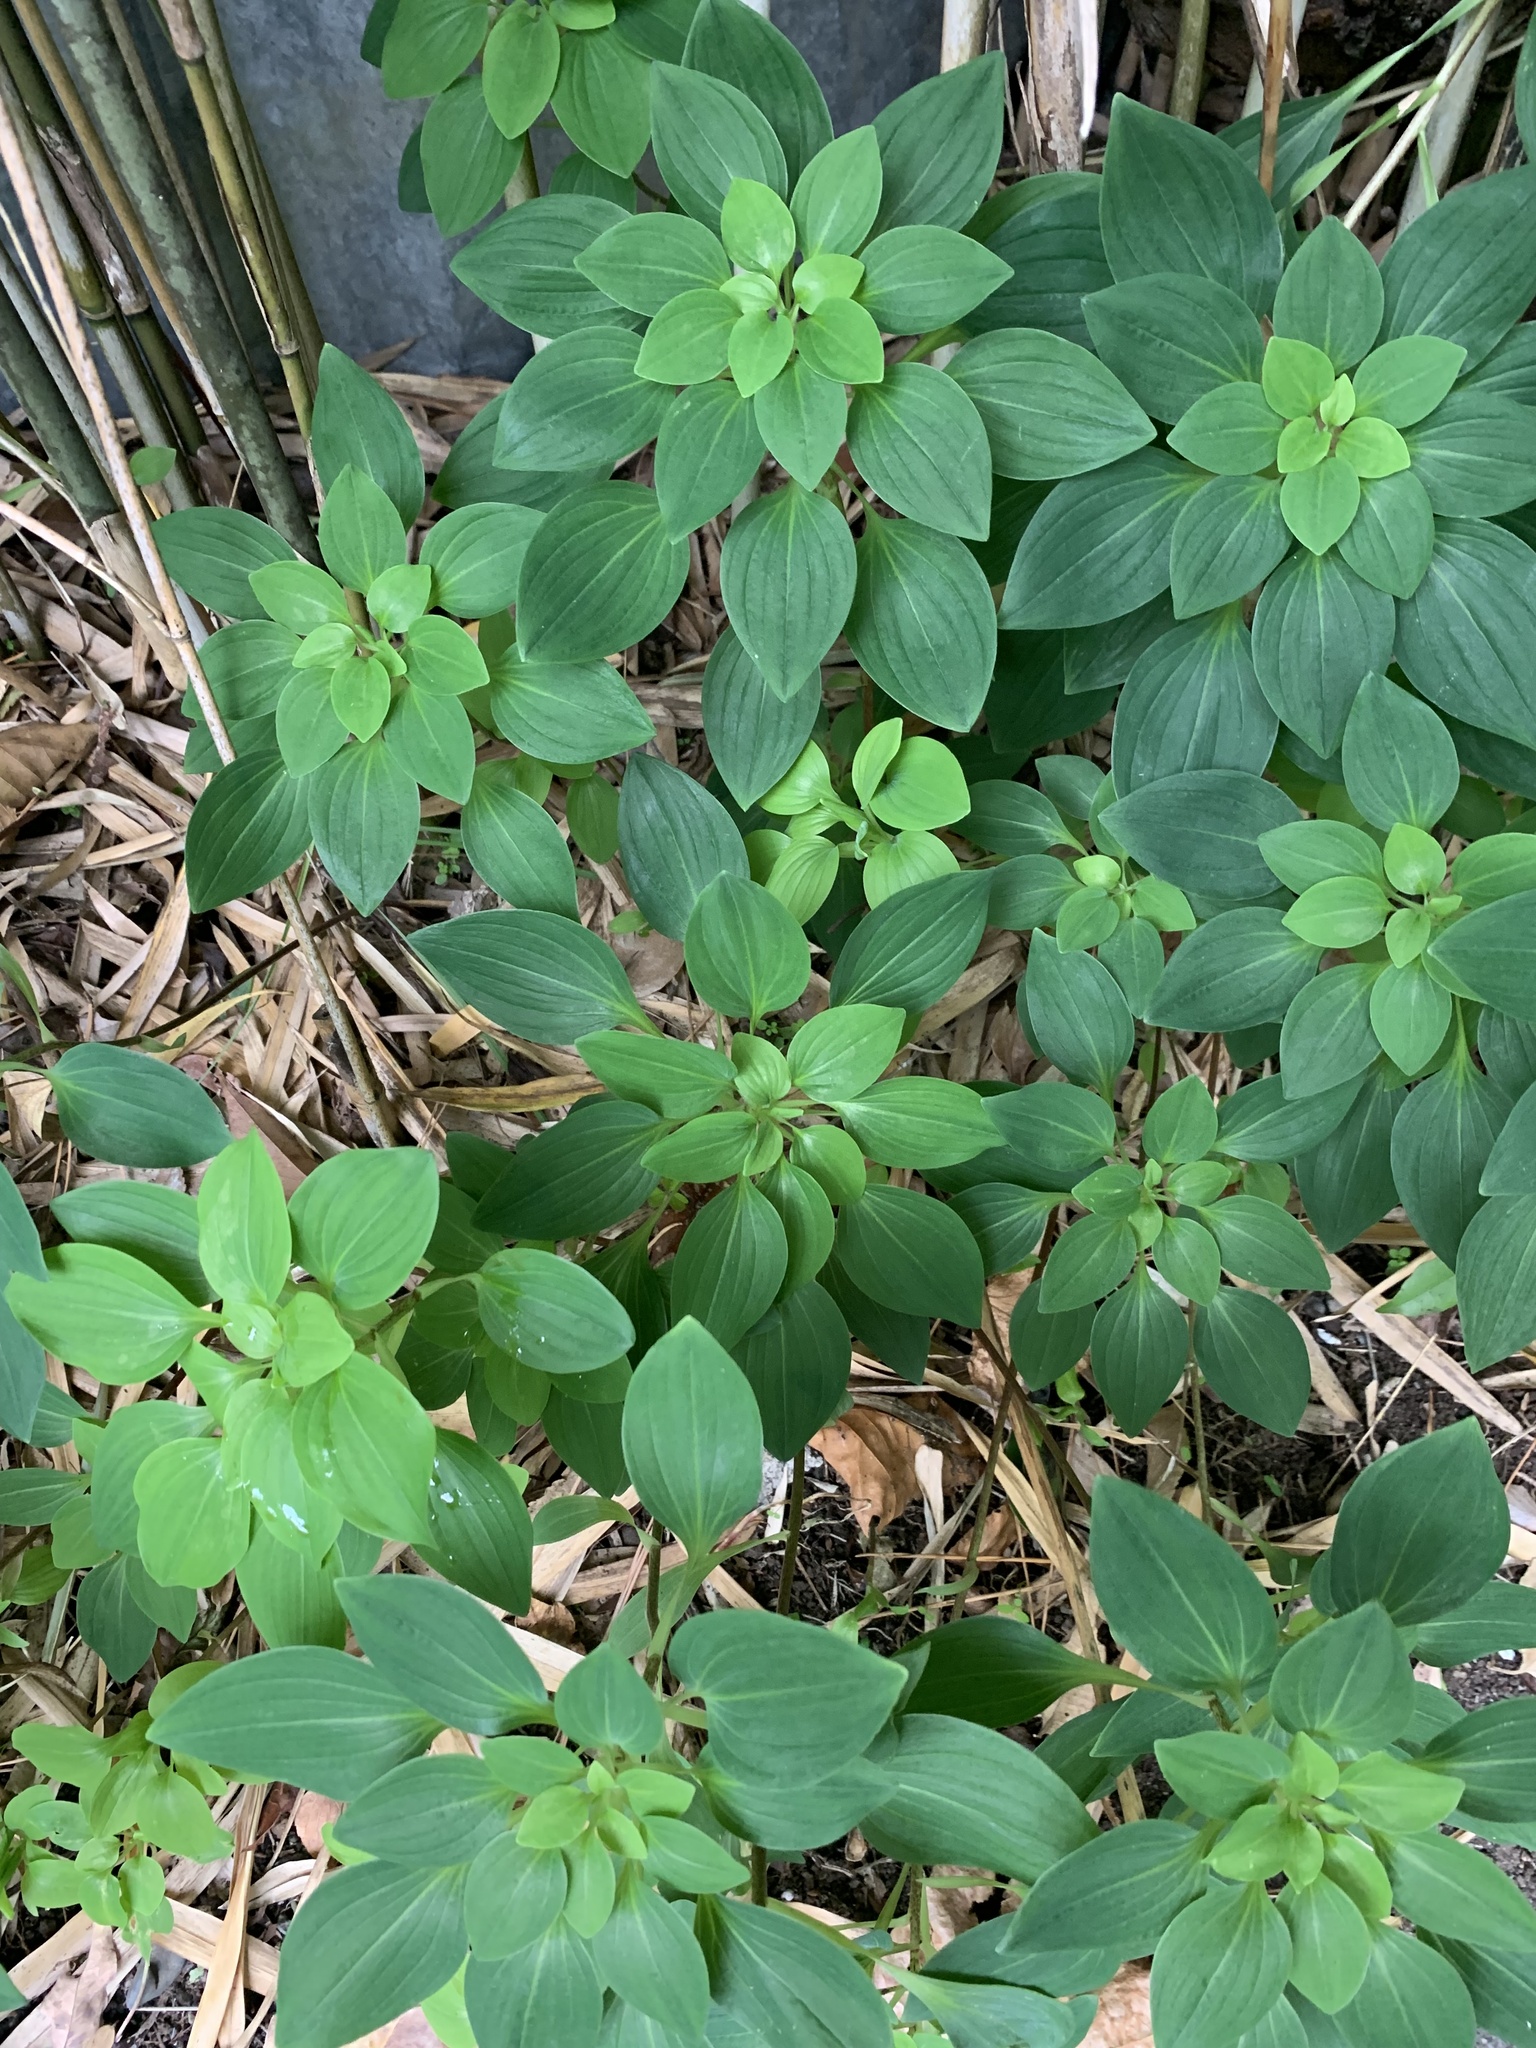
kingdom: Plantae
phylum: Tracheophyta
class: Liliopsida
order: Liliales
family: Alstroemeriaceae
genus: Alstroemeria
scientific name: Alstroemeria psittacina
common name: Peruvian-lily
